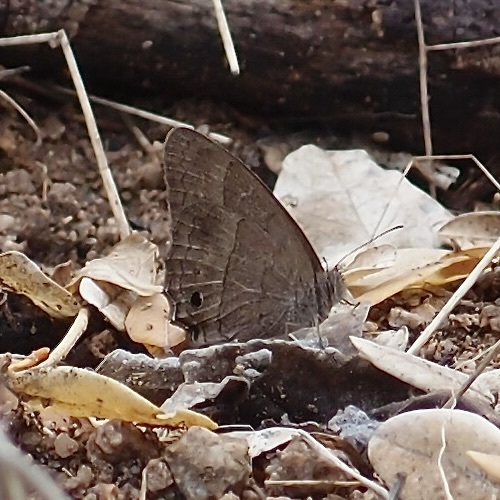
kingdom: Animalia
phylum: Arthropoda
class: Insecta
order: Lepidoptera
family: Nymphalidae
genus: Vareuptychia
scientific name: Vareuptychia similis
